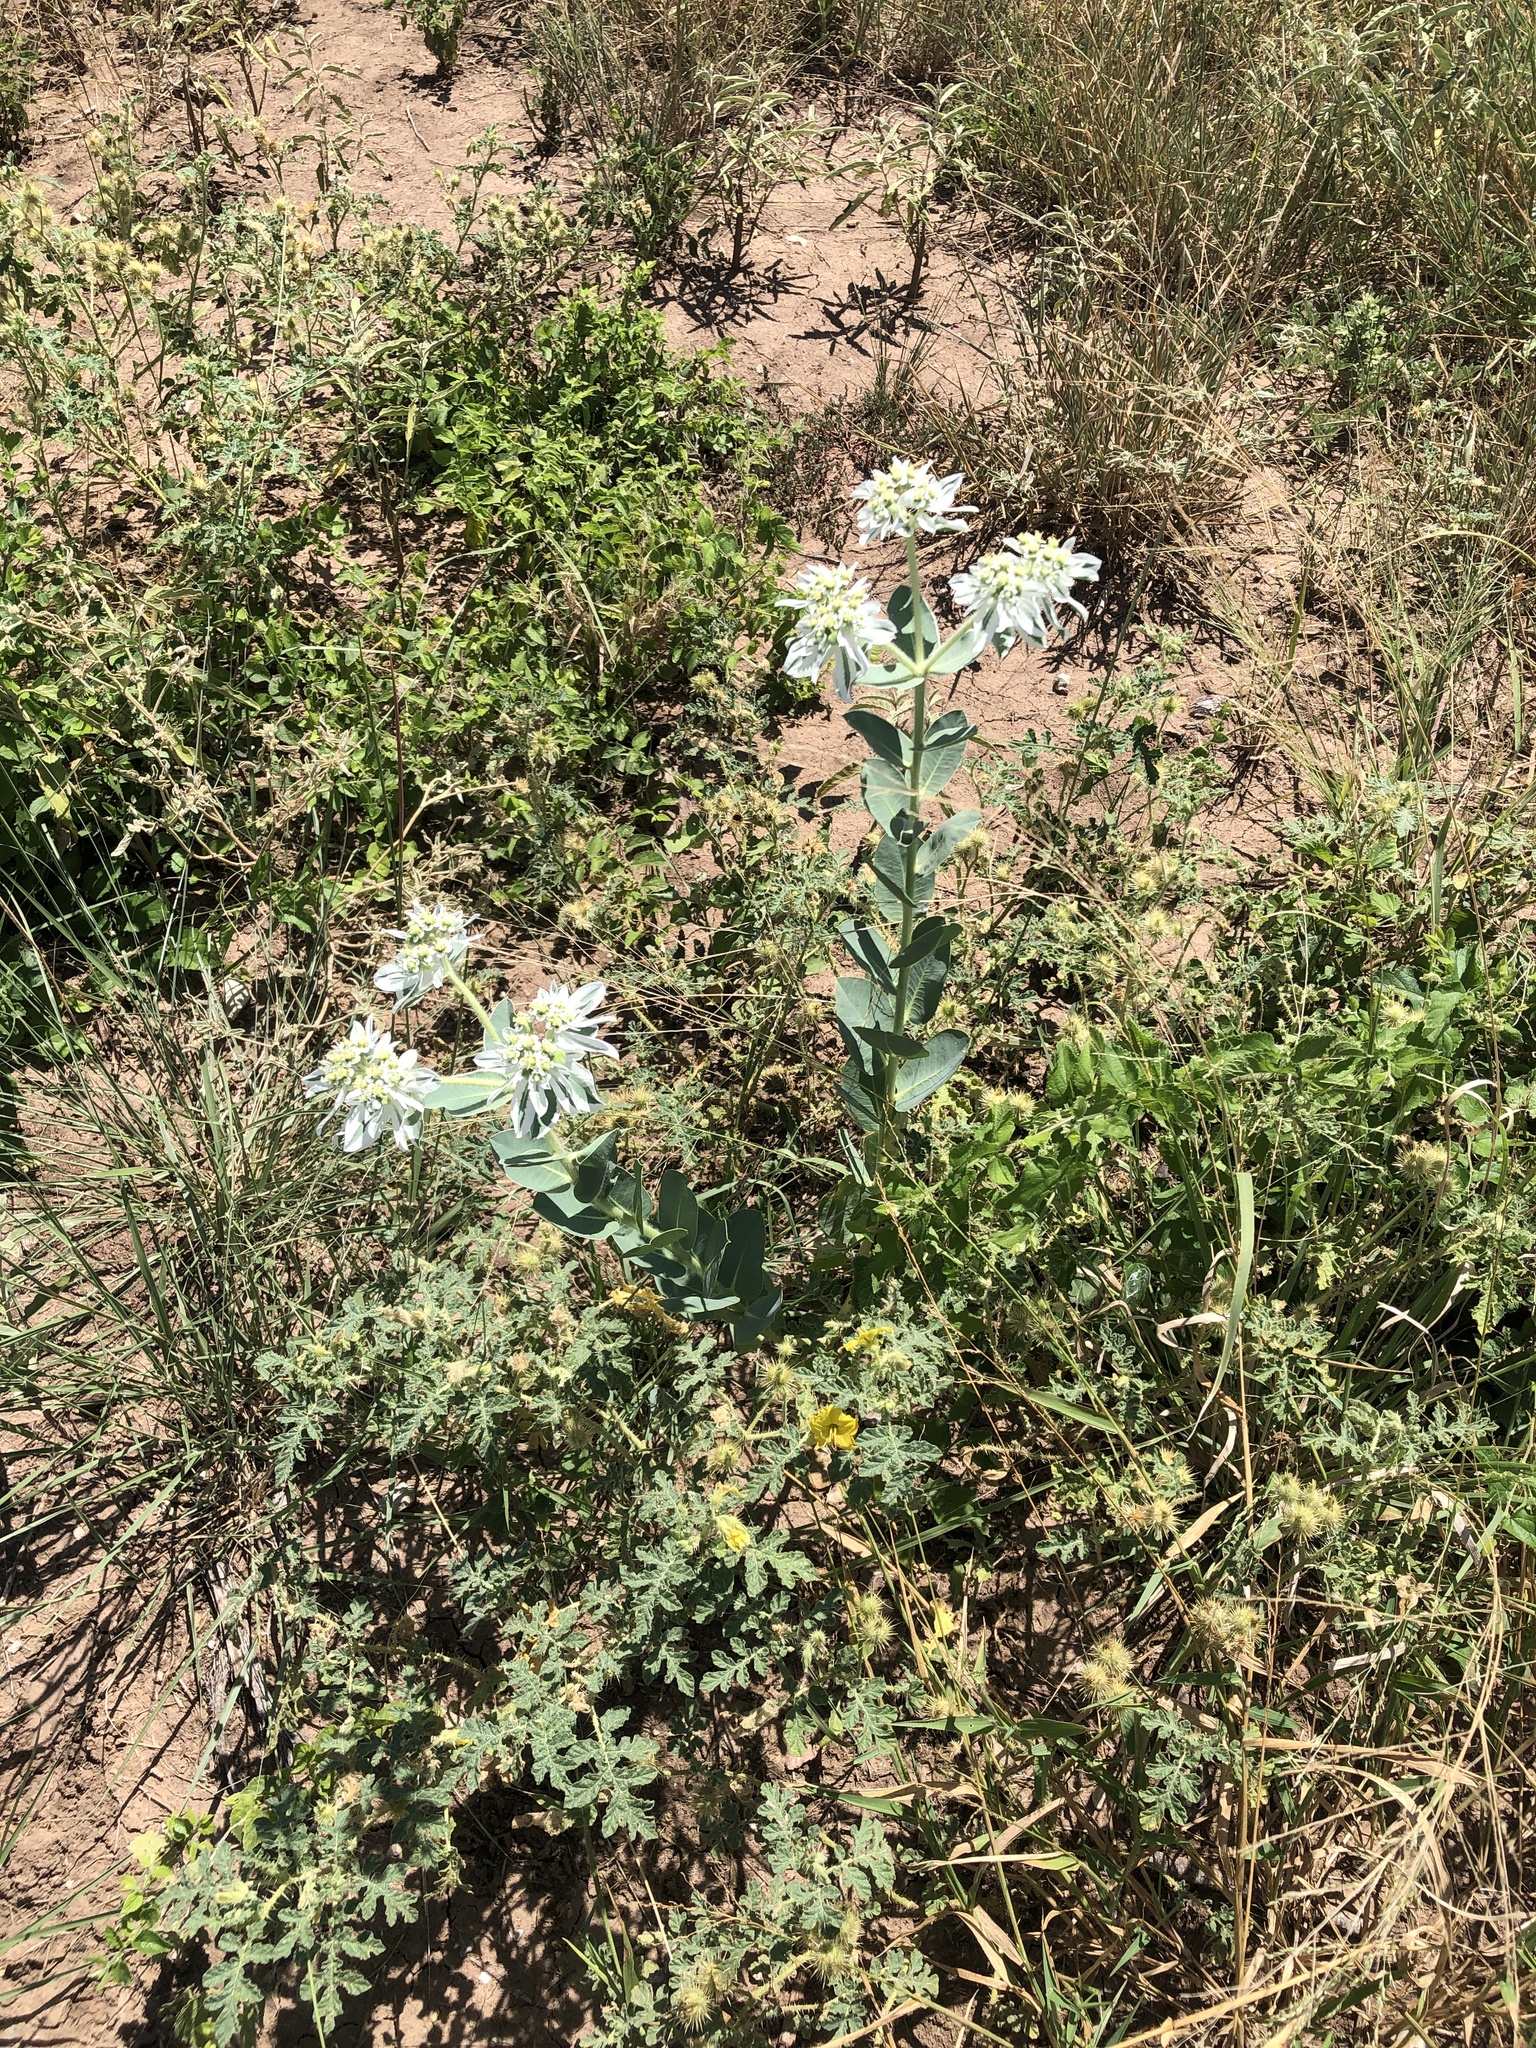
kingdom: Plantae
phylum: Tracheophyta
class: Magnoliopsida
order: Malpighiales
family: Euphorbiaceae
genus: Euphorbia
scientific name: Euphorbia marginata
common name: Ghostweed
